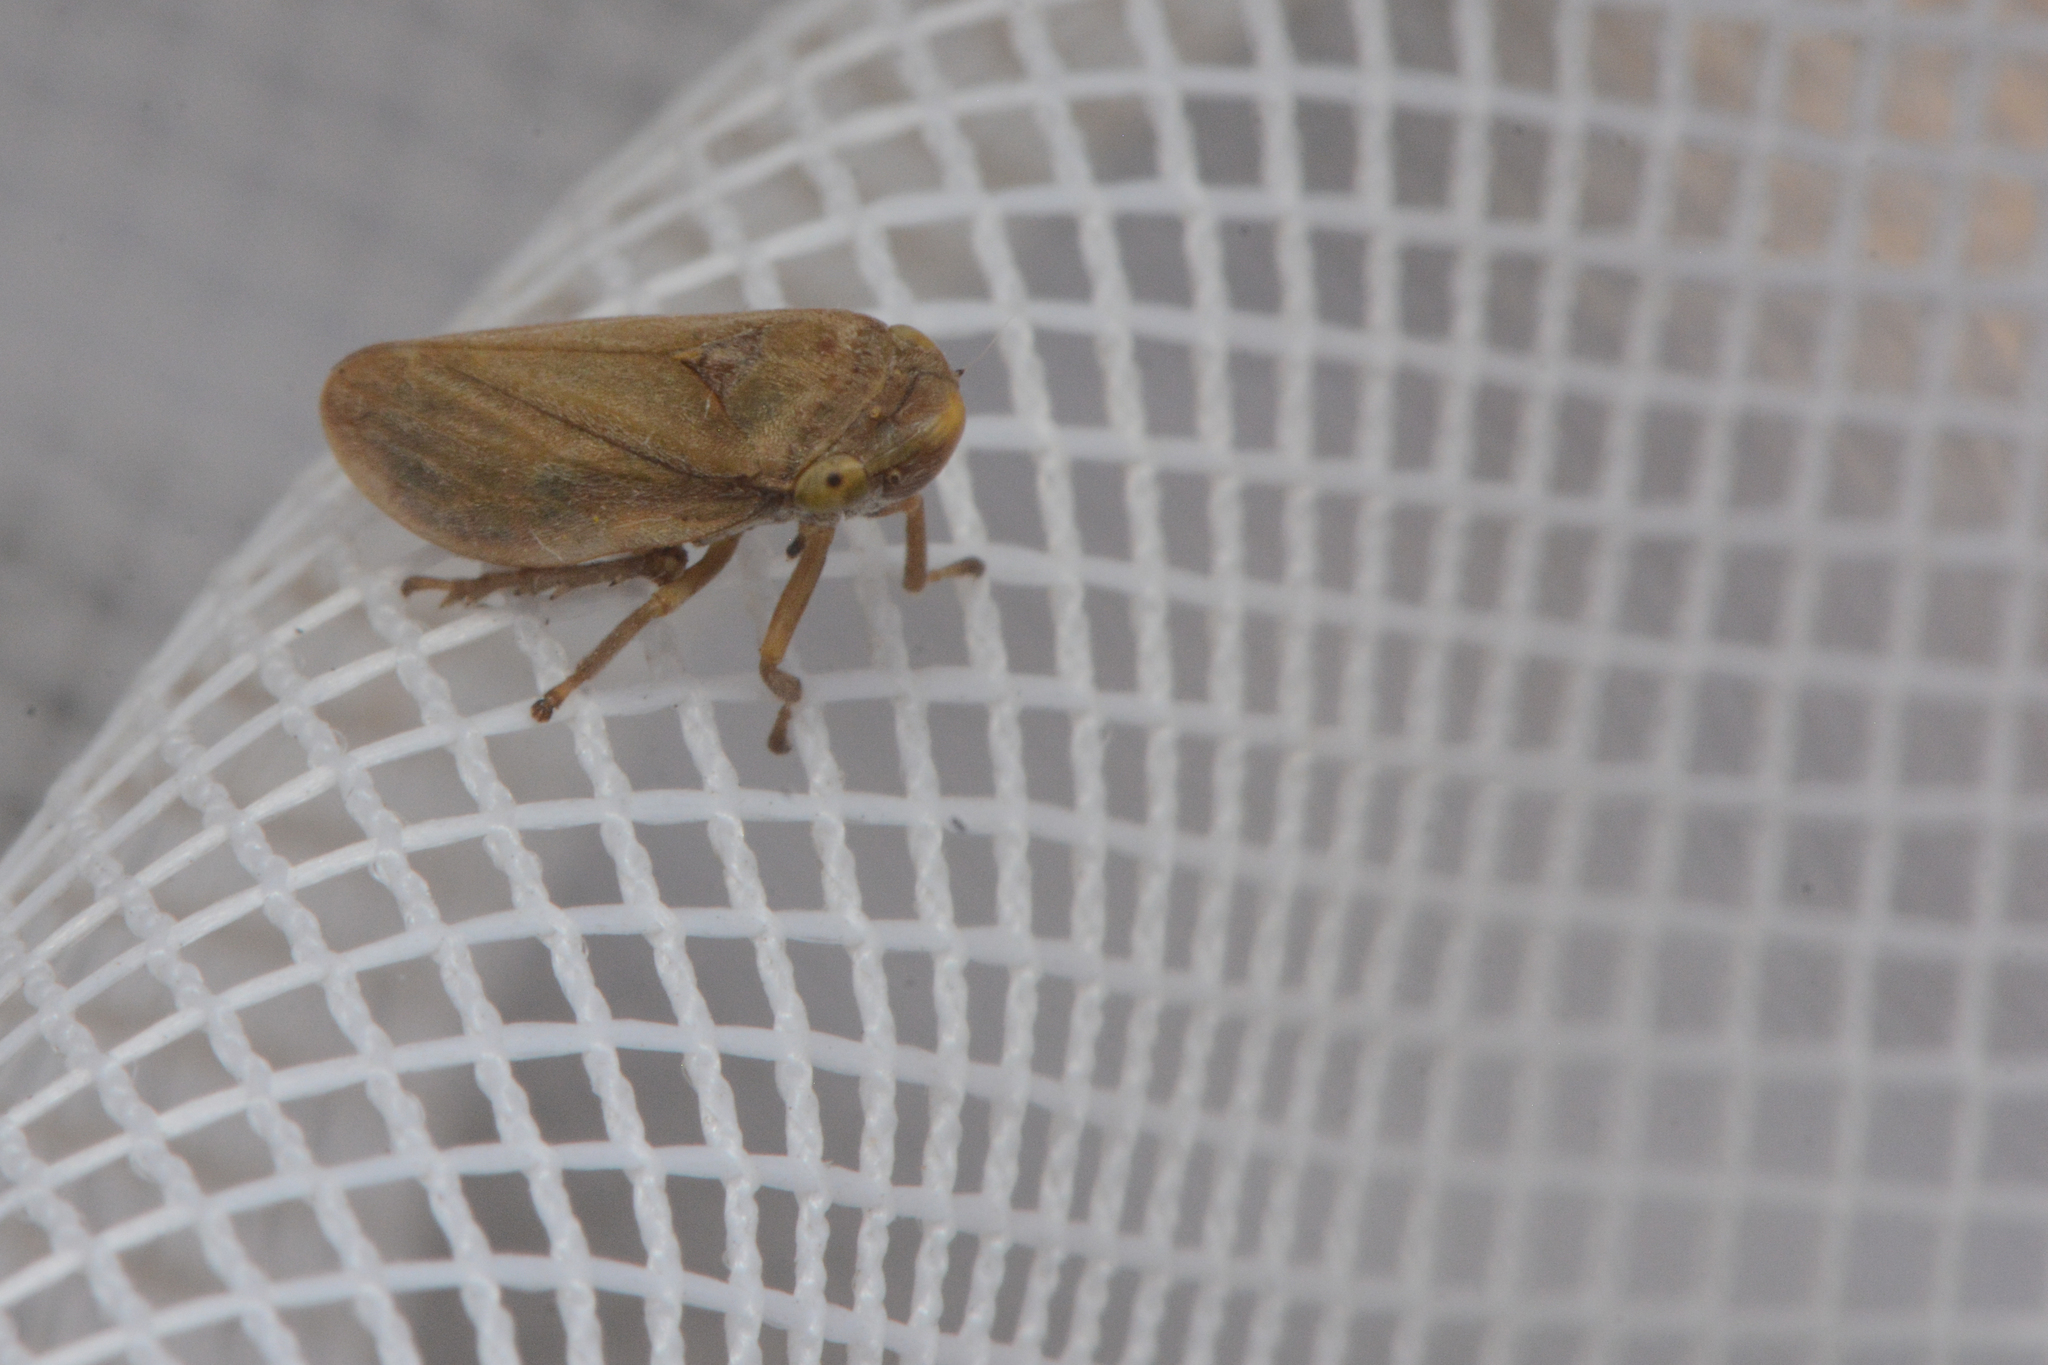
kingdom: Animalia
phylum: Arthropoda
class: Insecta
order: Hemiptera
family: Aphrophoridae
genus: Philaenus
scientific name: Philaenus spumarius
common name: Meadow spittlebug
